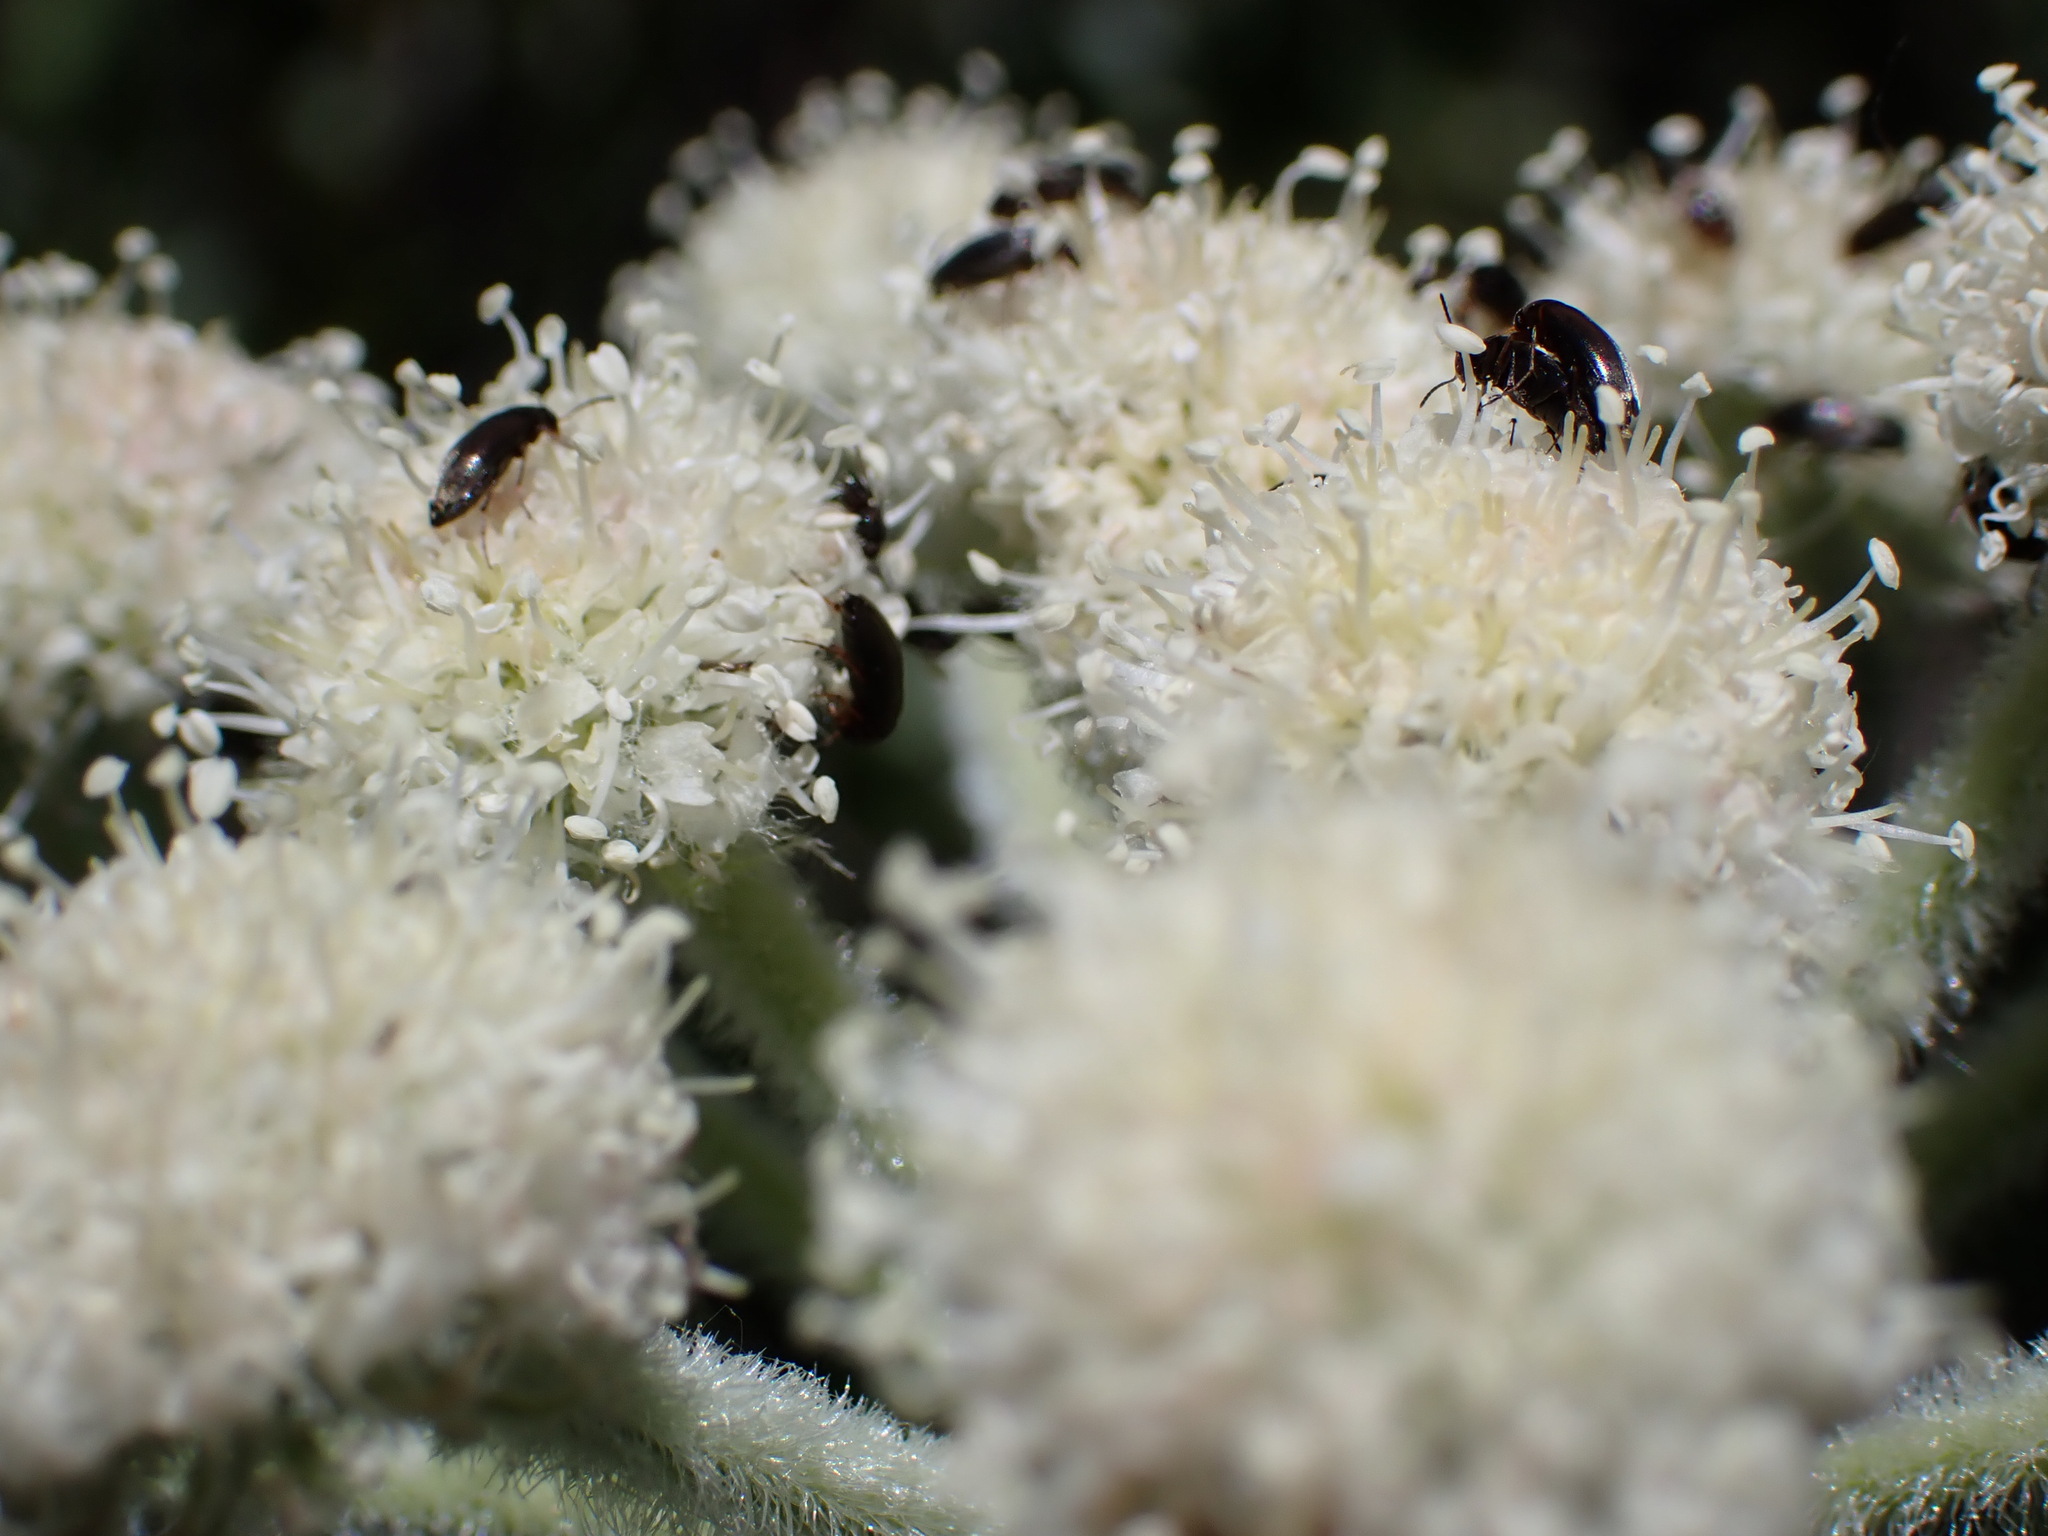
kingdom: Plantae
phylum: Tracheophyta
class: Magnoliopsida
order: Apiales
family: Apiaceae
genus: Angelica
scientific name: Angelica capitellata
